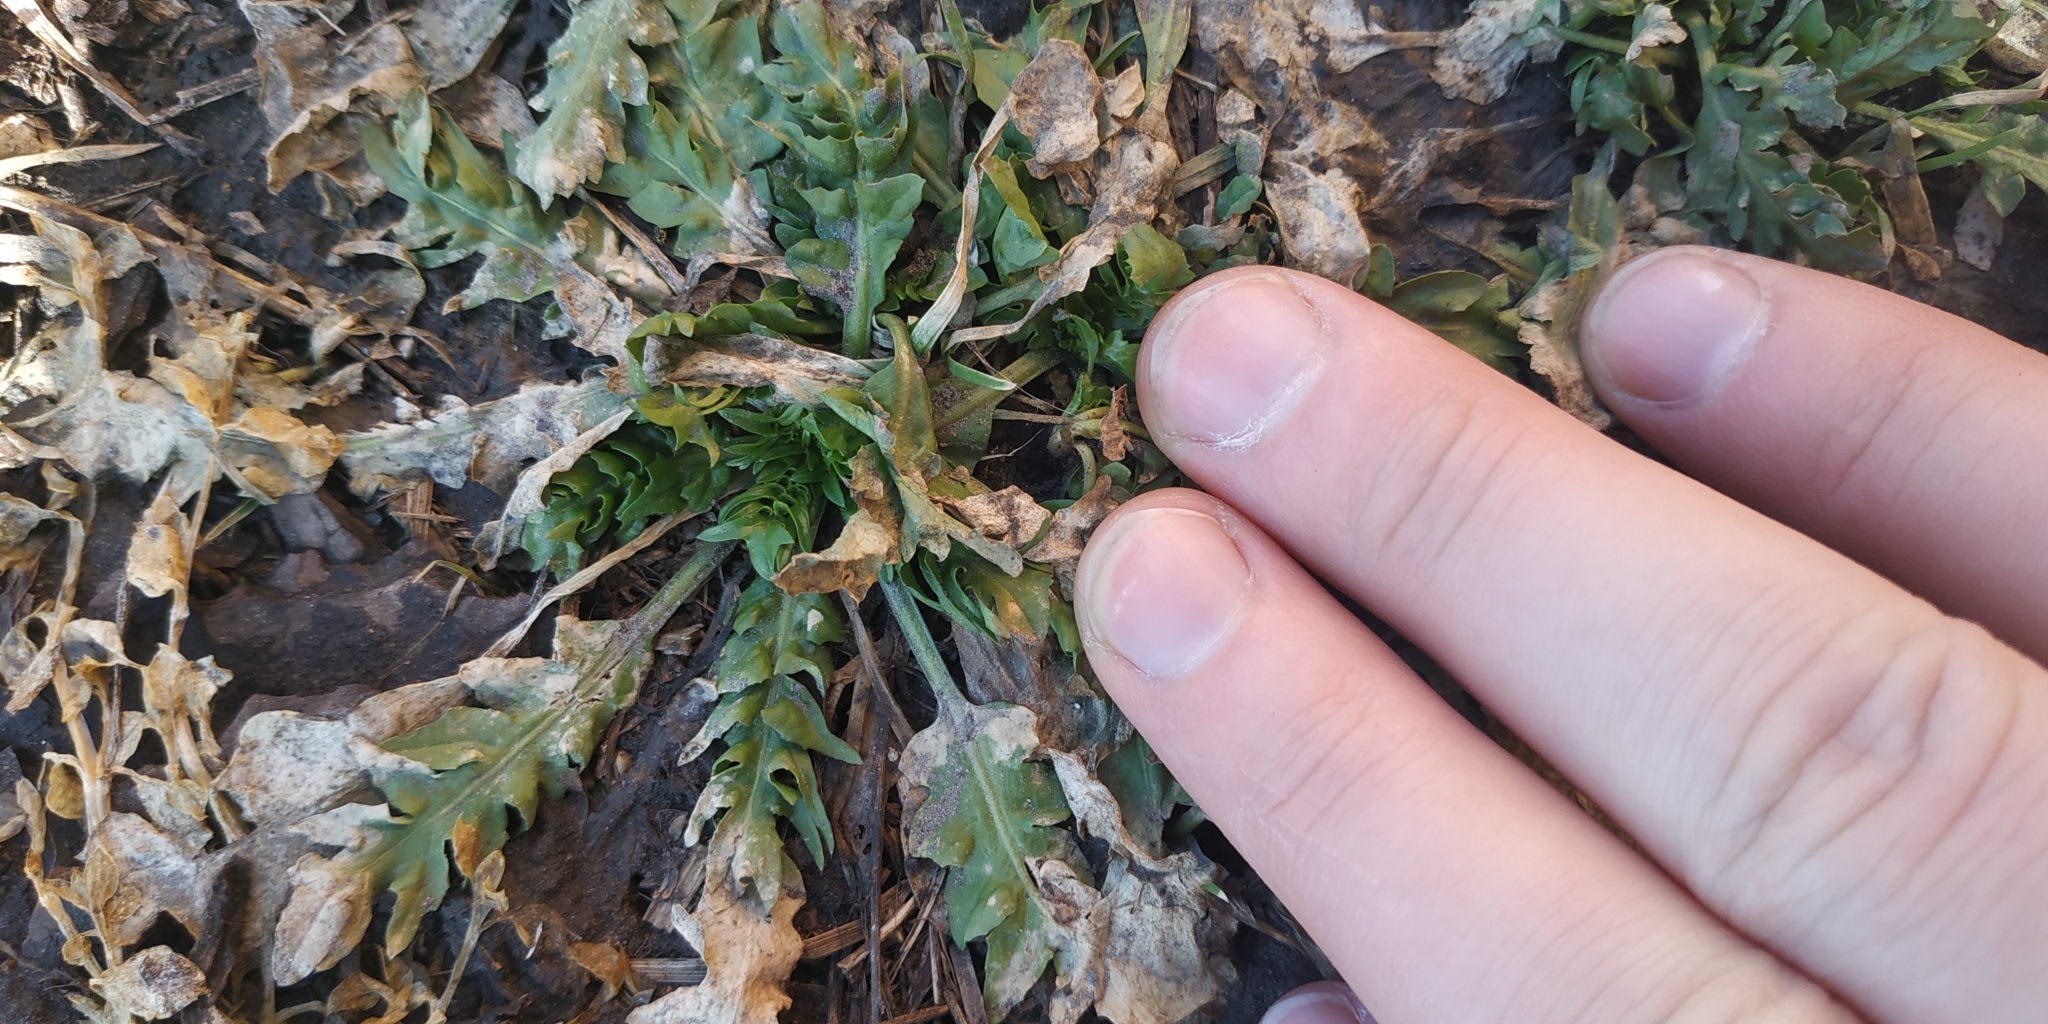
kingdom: Plantae
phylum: Tracheophyta
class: Magnoliopsida
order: Brassicales
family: Brassicaceae
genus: Capsella
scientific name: Capsella bursa-pastoris
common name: Shepherd's purse
